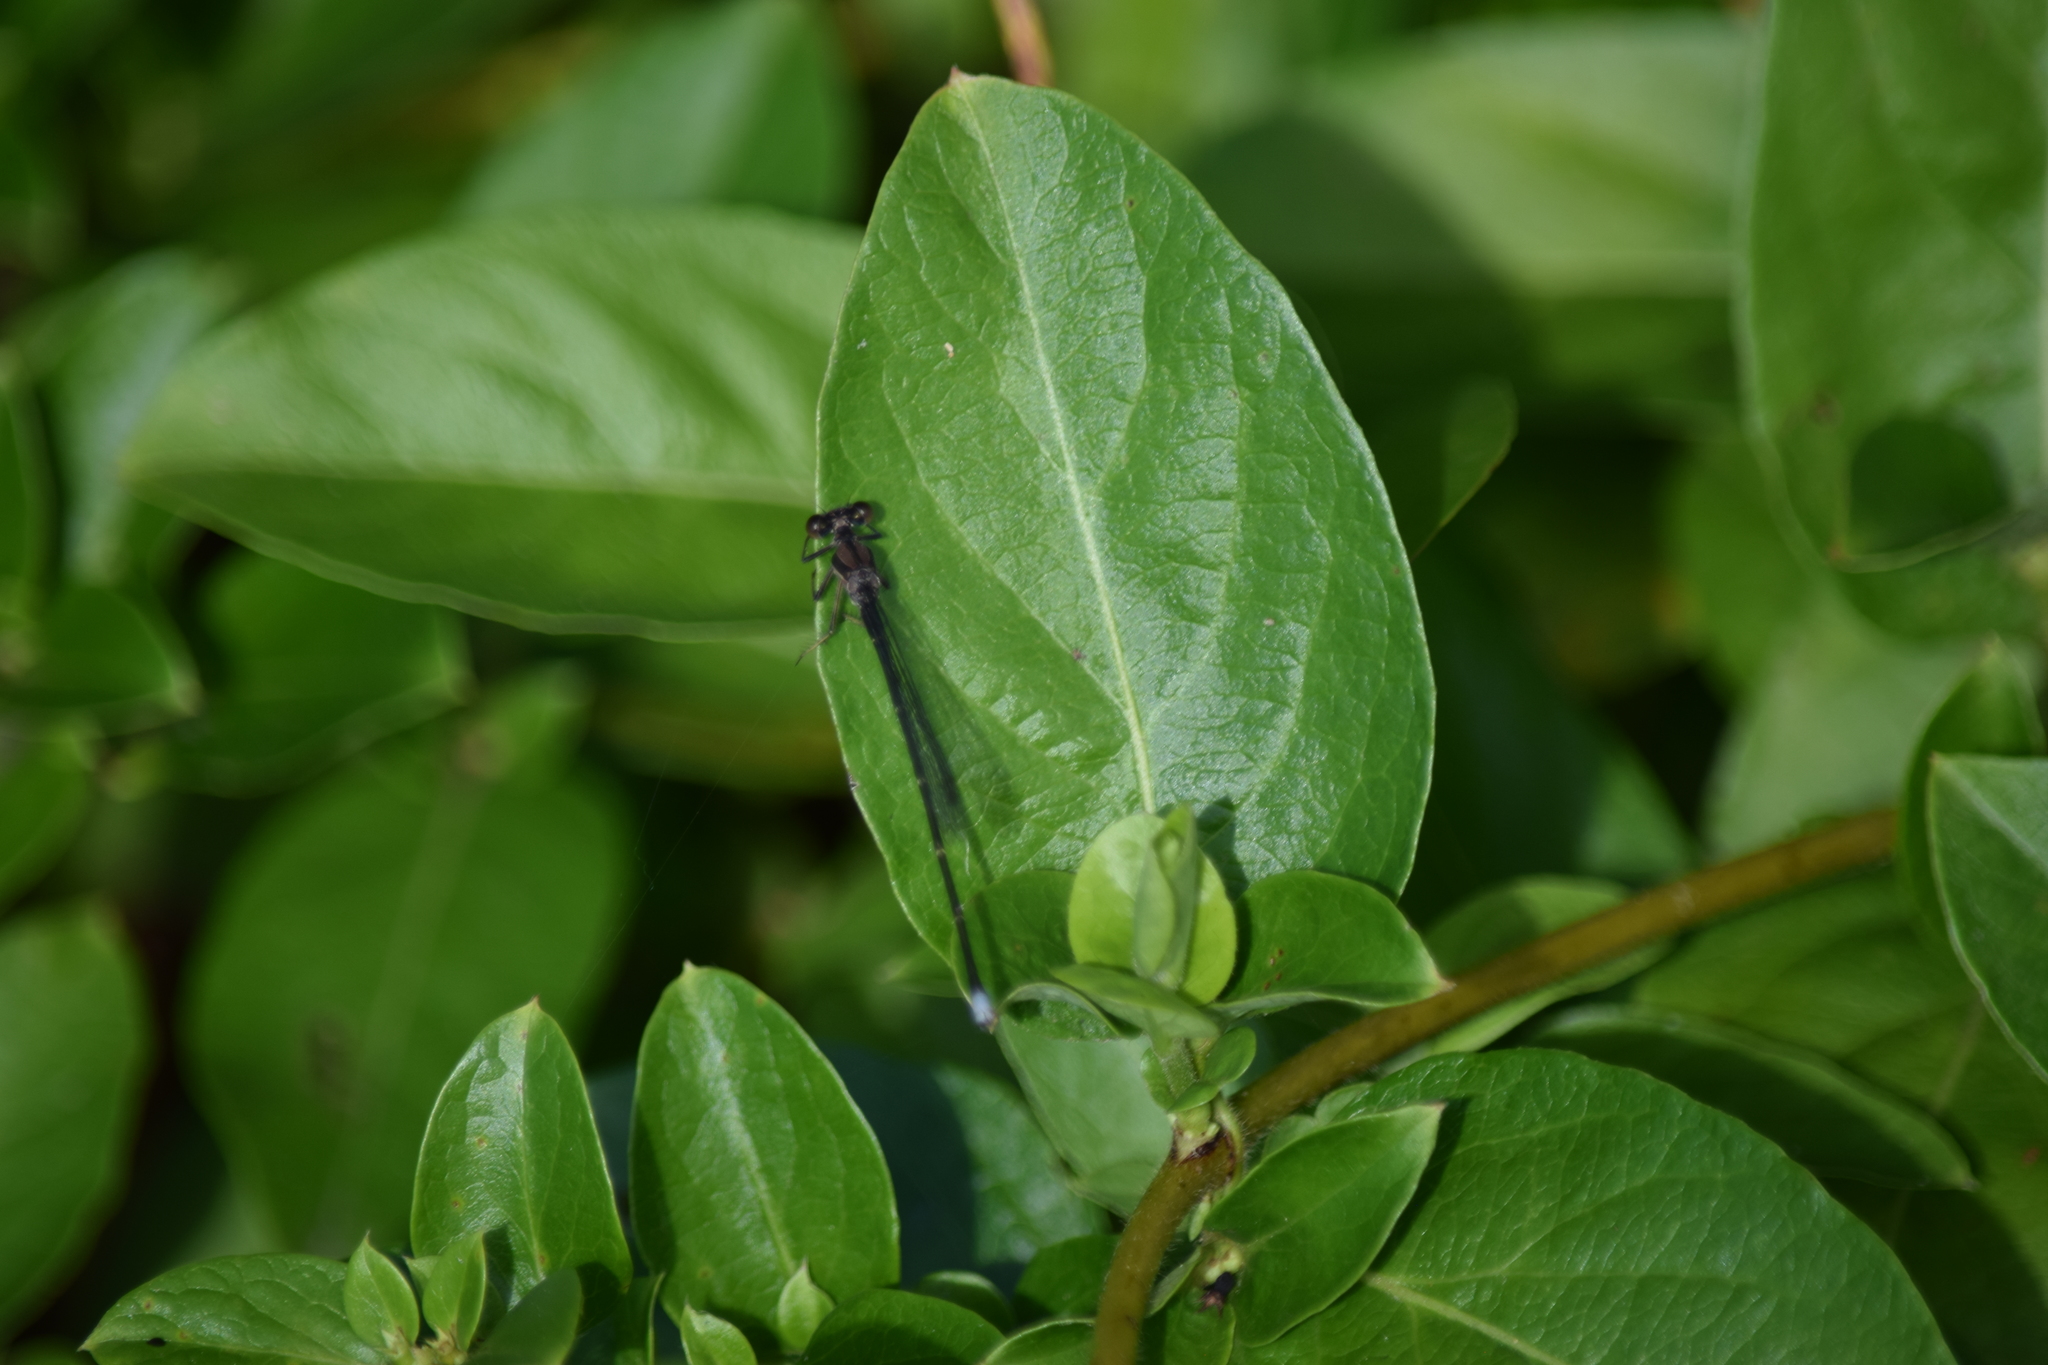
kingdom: Animalia
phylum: Arthropoda
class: Insecta
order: Odonata
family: Coenagrionidae
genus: Argia
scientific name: Argia tibialis
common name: Blue-tipped dancer
